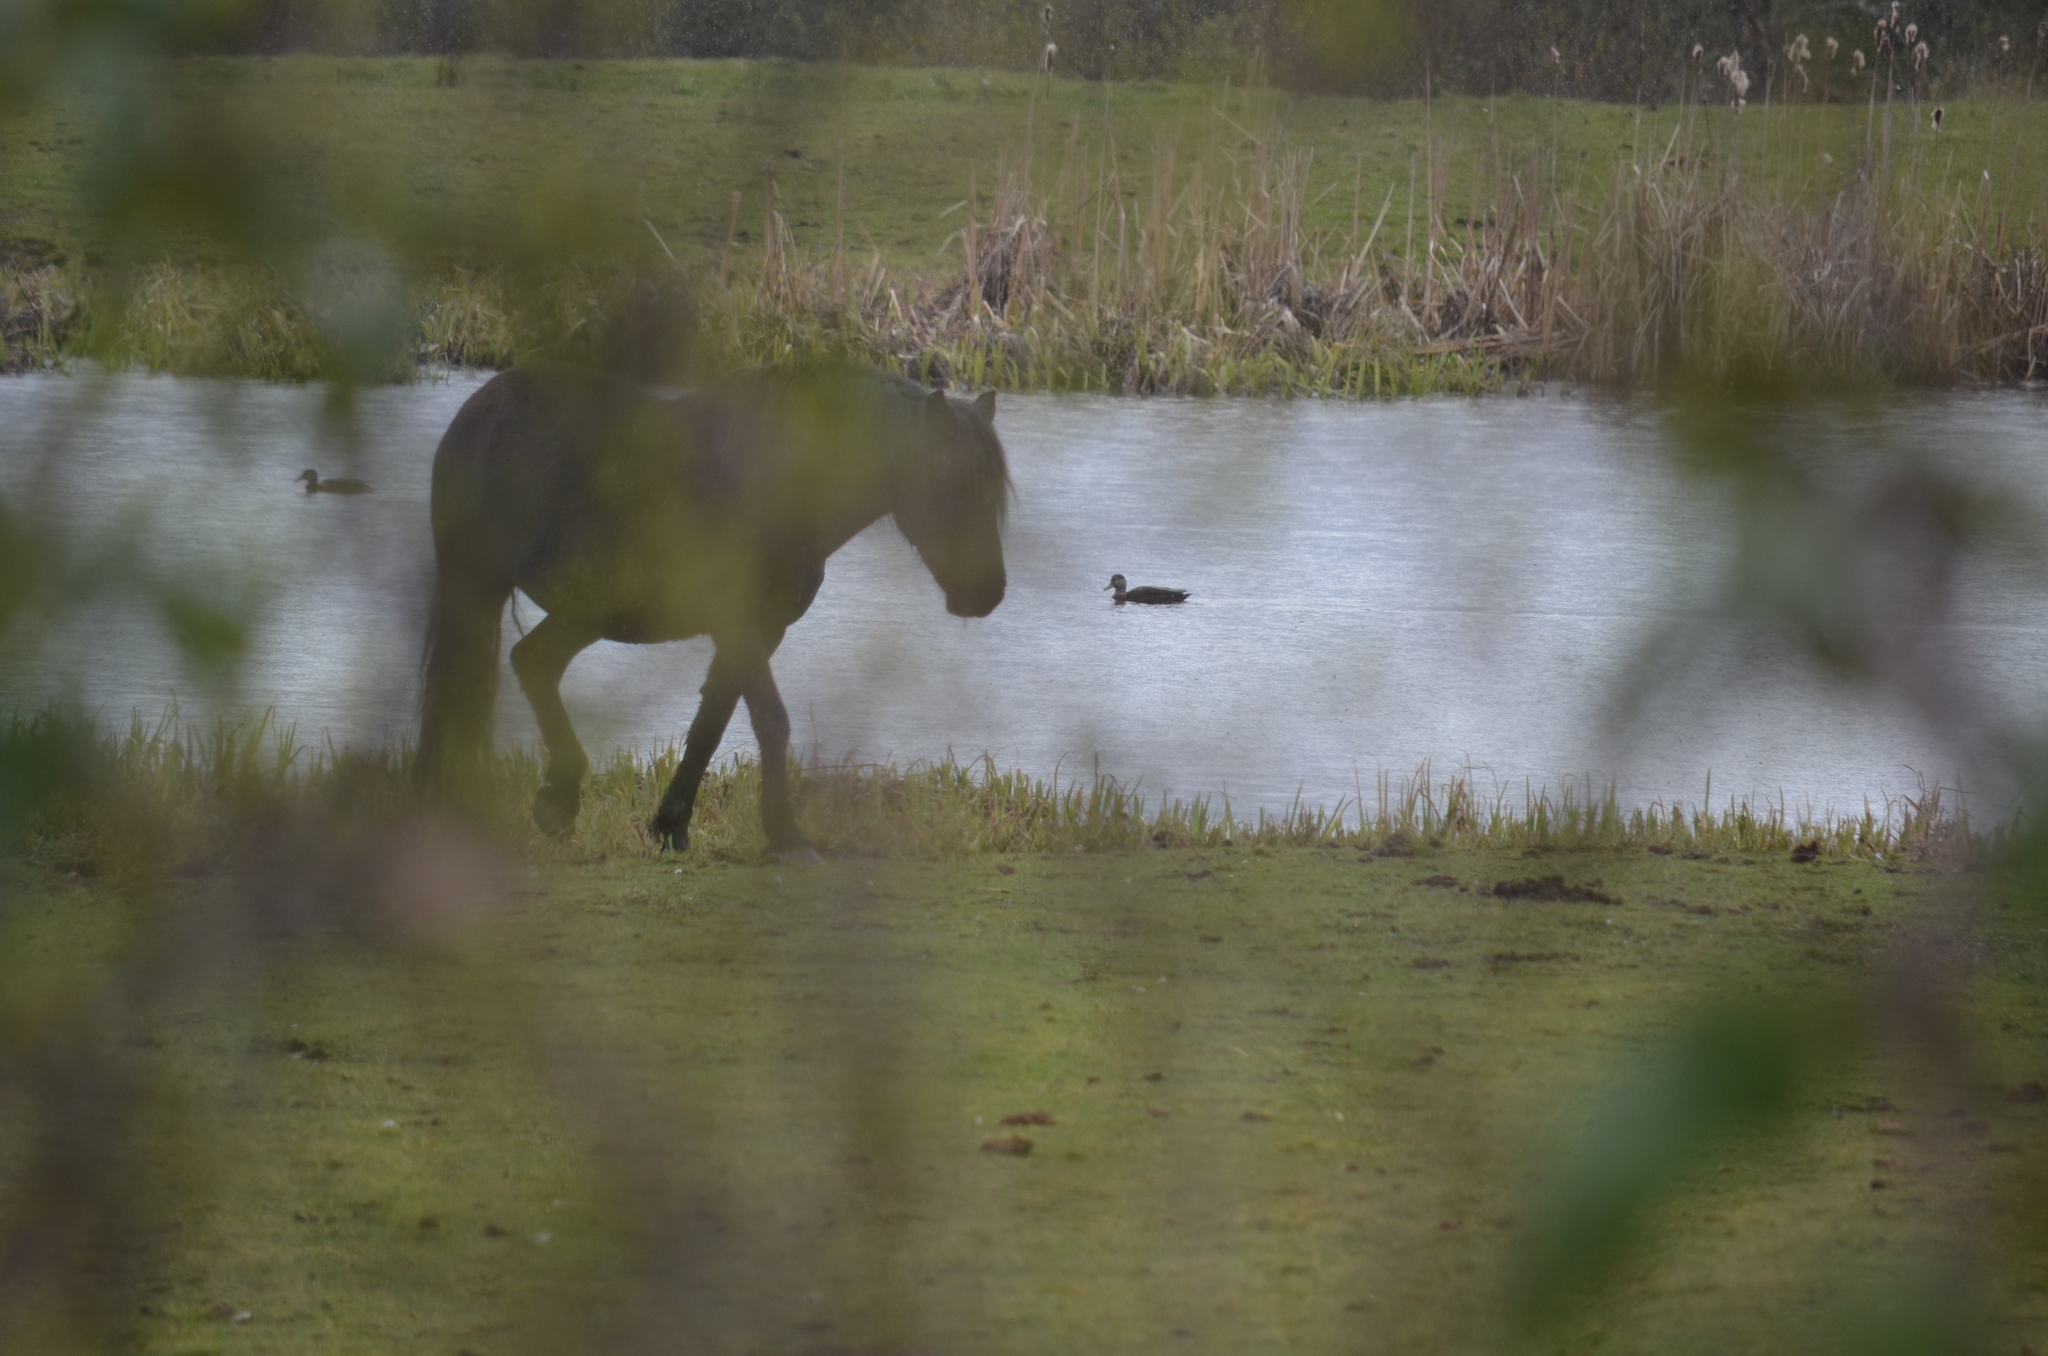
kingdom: Animalia
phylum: Chordata
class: Aves
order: Anseriformes
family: Anatidae
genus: Anas
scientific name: Anas rubripes
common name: American black duck
